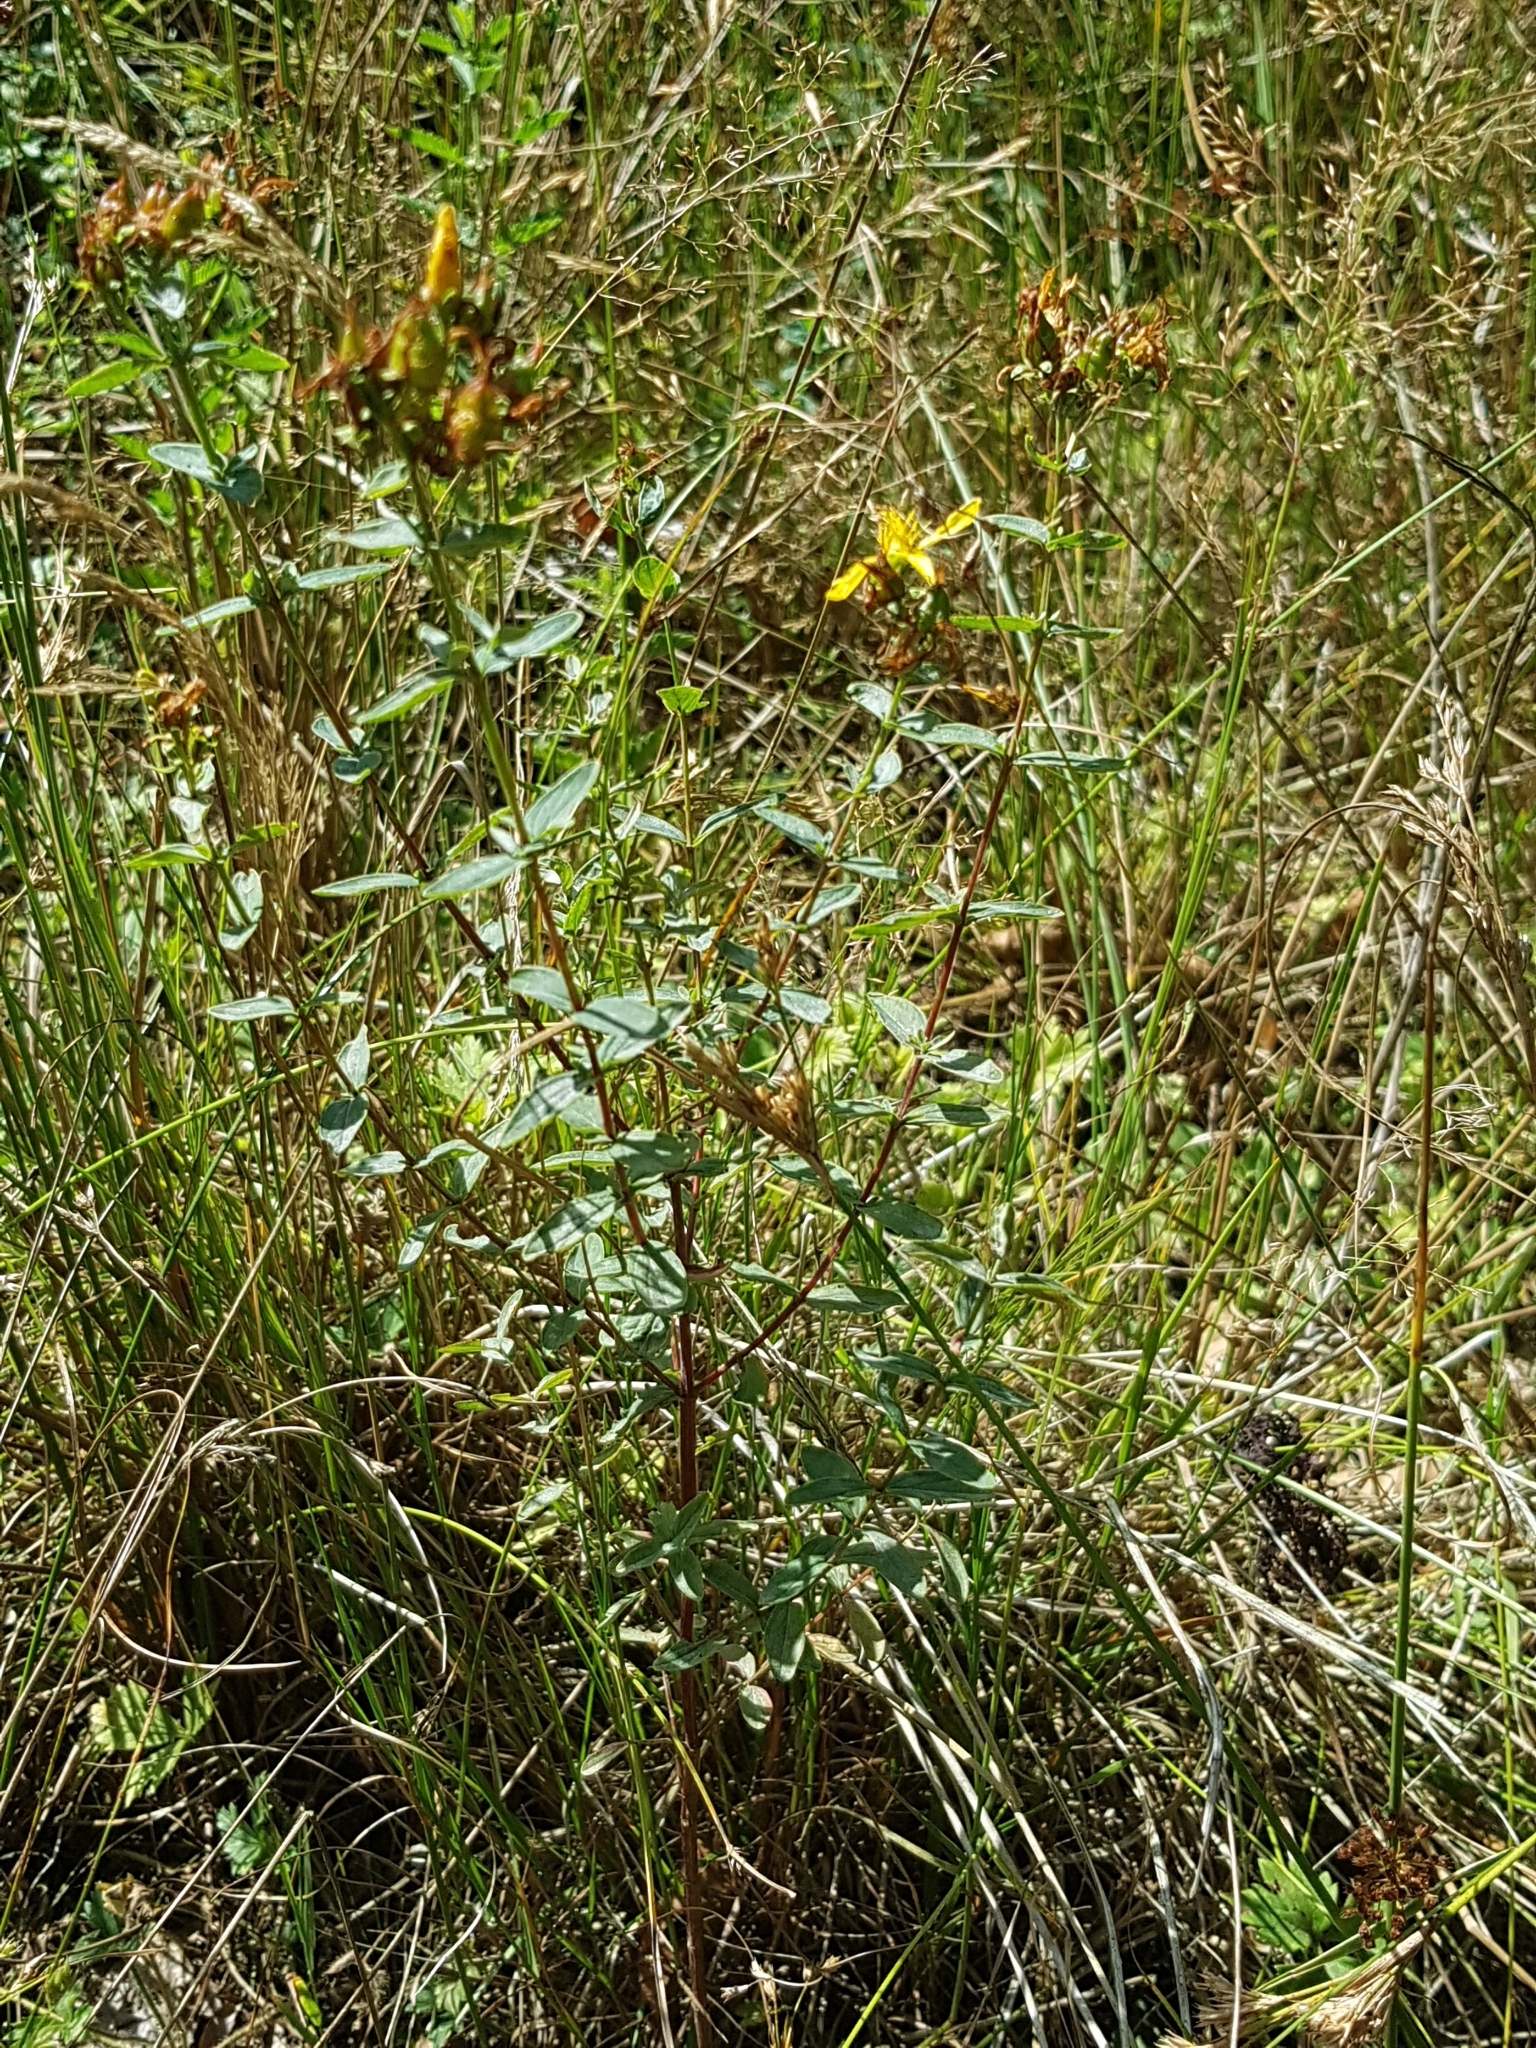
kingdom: Plantae
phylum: Tracheophyta
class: Magnoliopsida
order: Malpighiales
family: Hypericaceae
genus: Hypericum
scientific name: Hypericum perforatum
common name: Common st. johnswort
